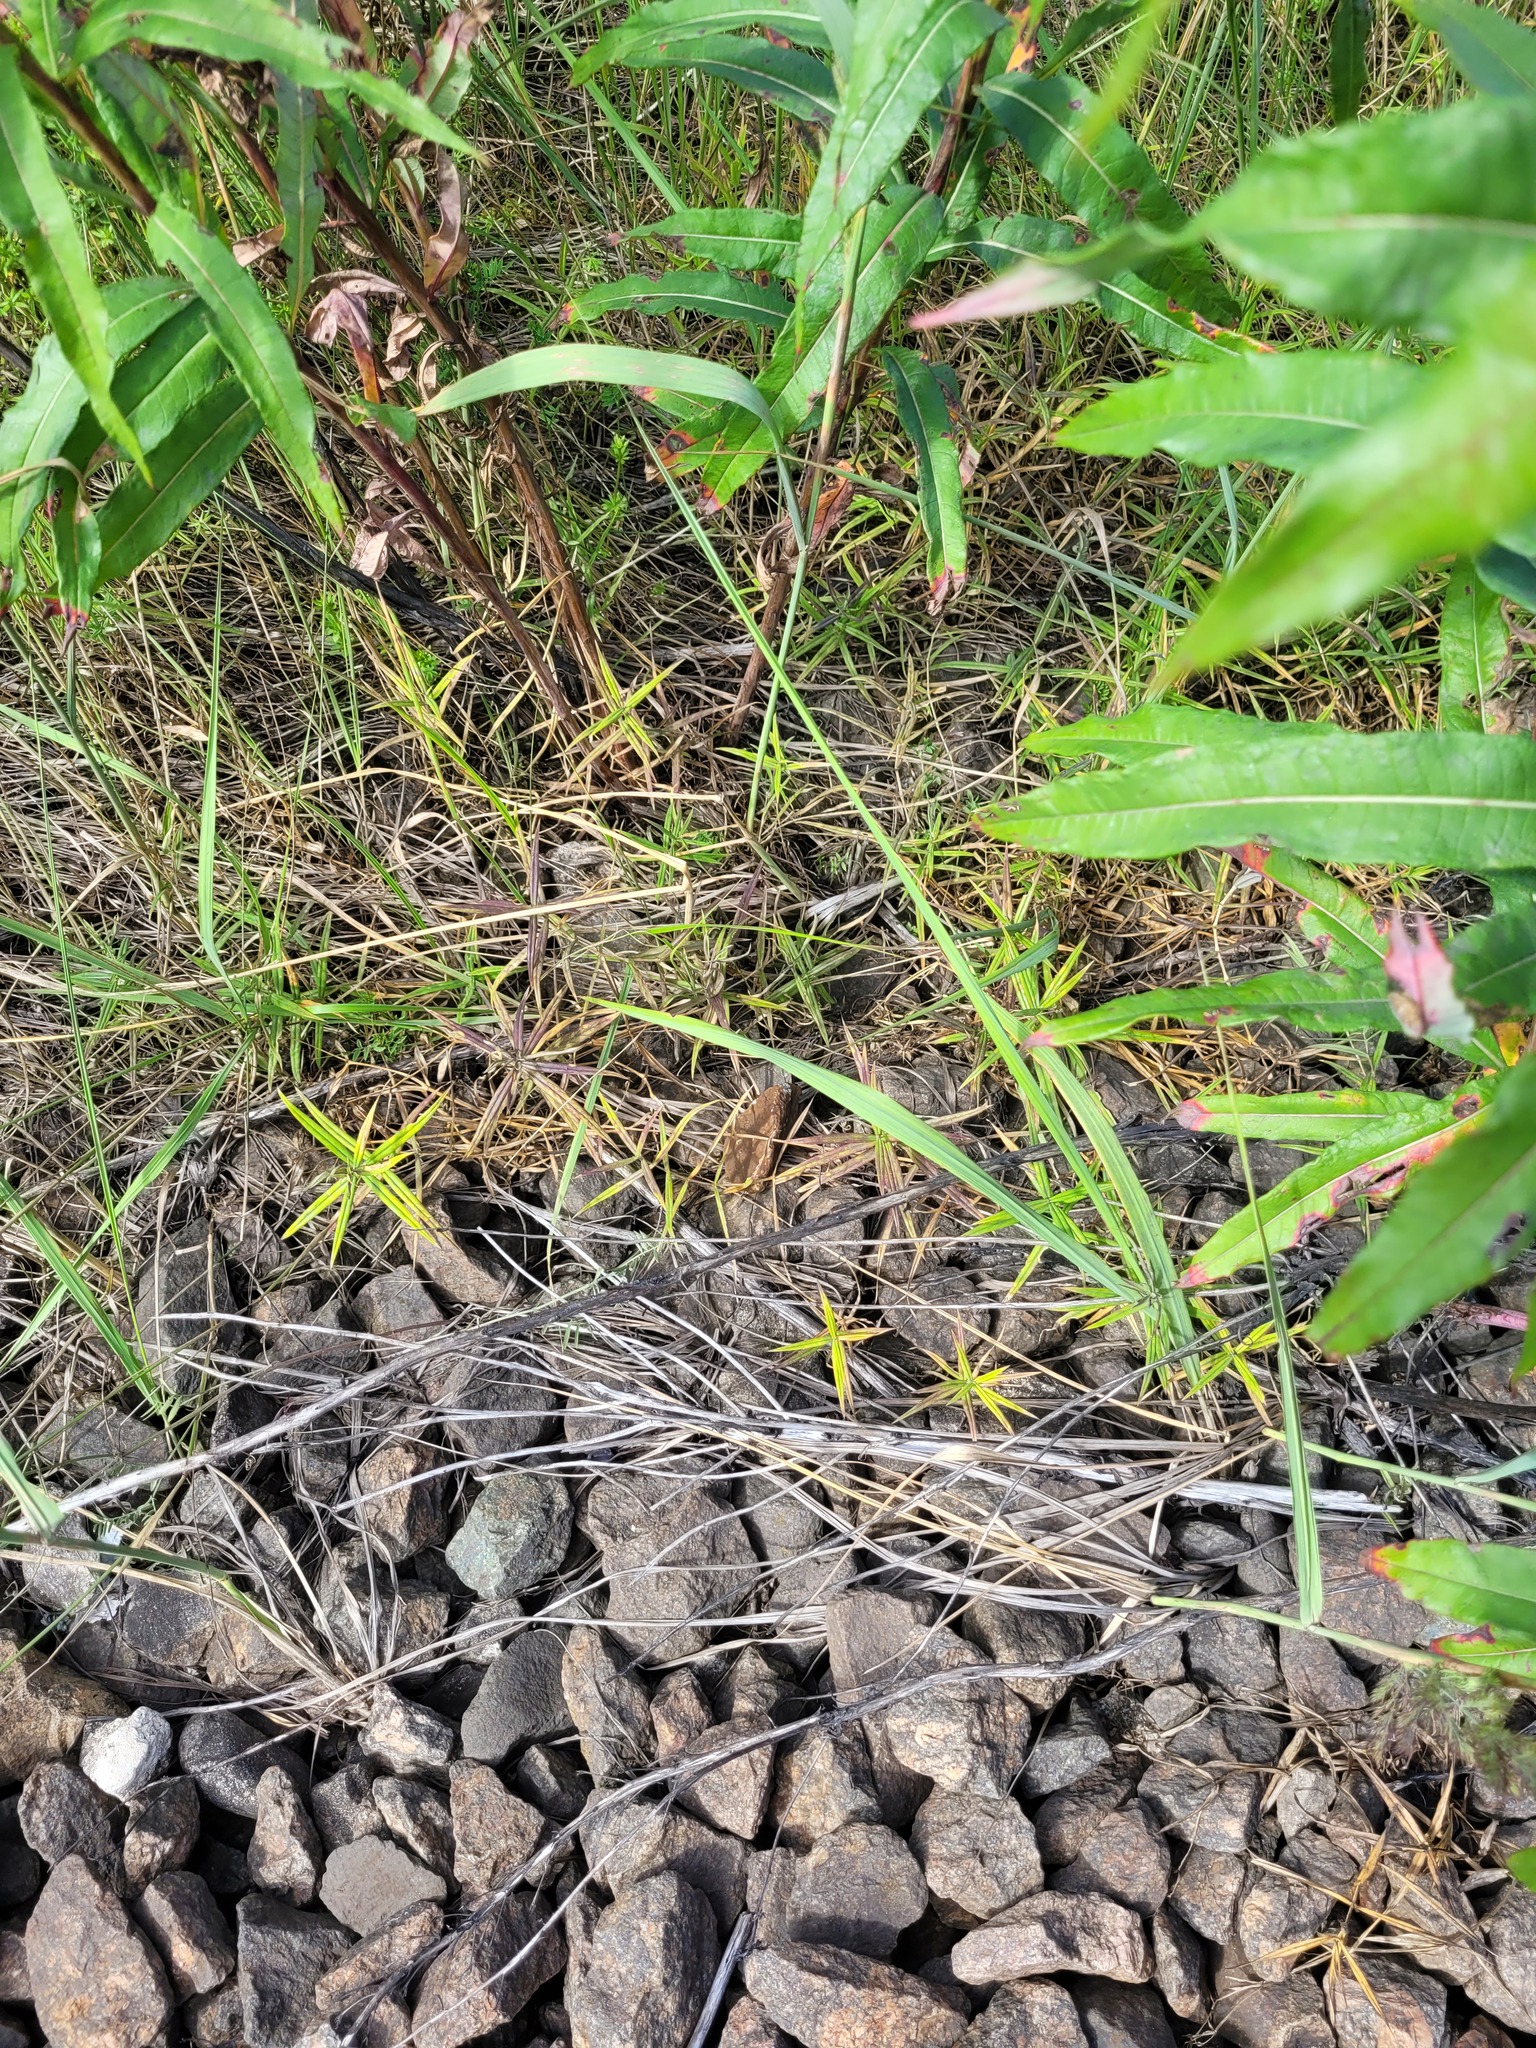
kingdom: Plantae
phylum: Tracheophyta
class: Magnoliopsida
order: Caryophyllales
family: Caryophyllaceae
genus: Rabelera
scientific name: Rabelera holostea
